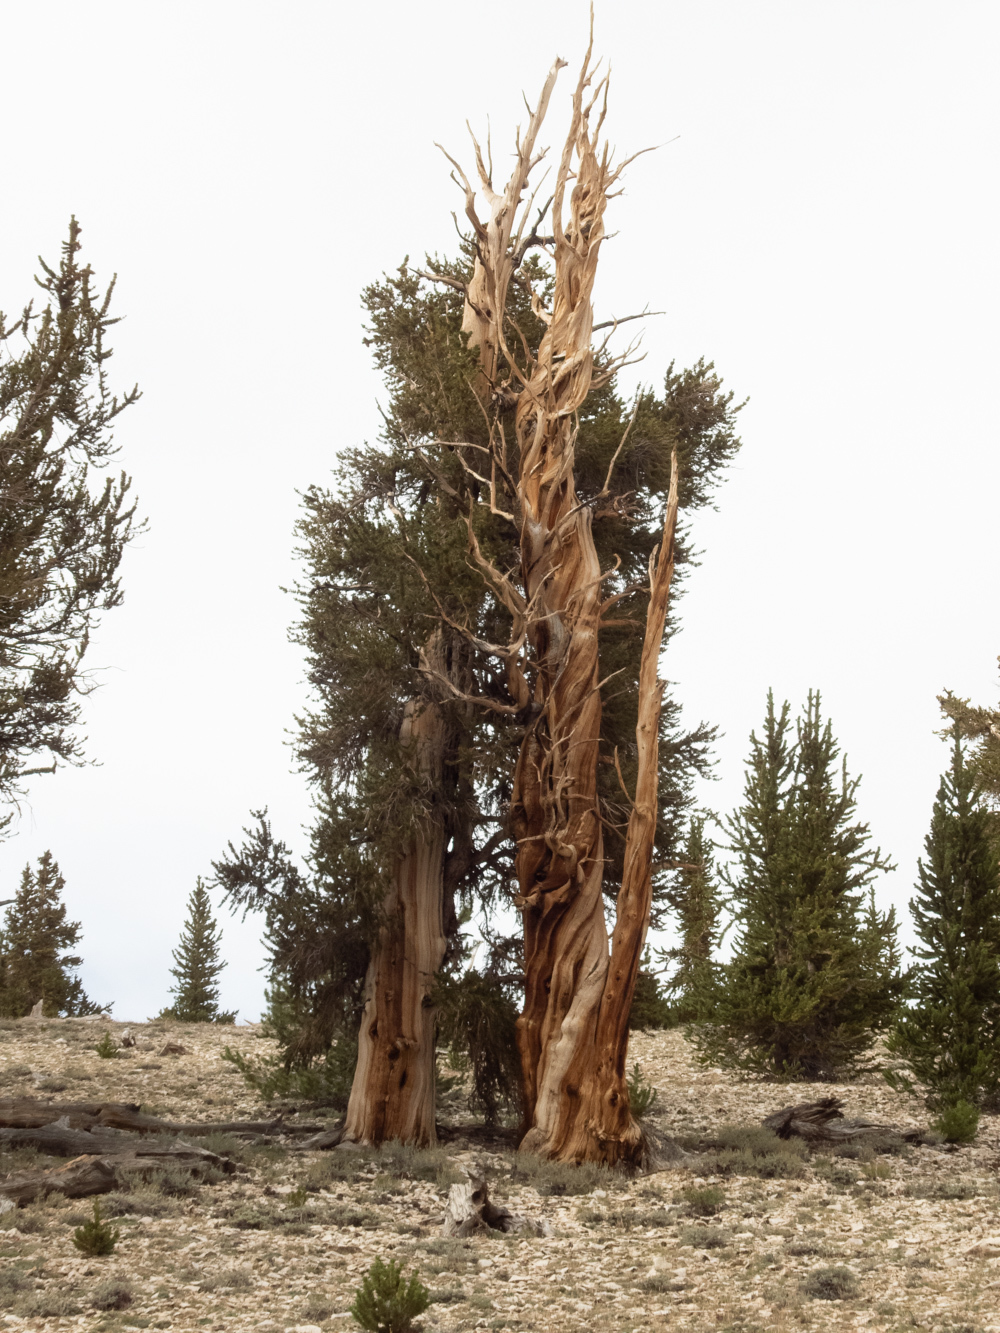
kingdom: Plantae
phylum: Tracheophyta
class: Pinopsida
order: Pinales
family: Pinaceae
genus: Pinus
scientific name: Pinus longaeva
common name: Intermountain bristlecone pine
